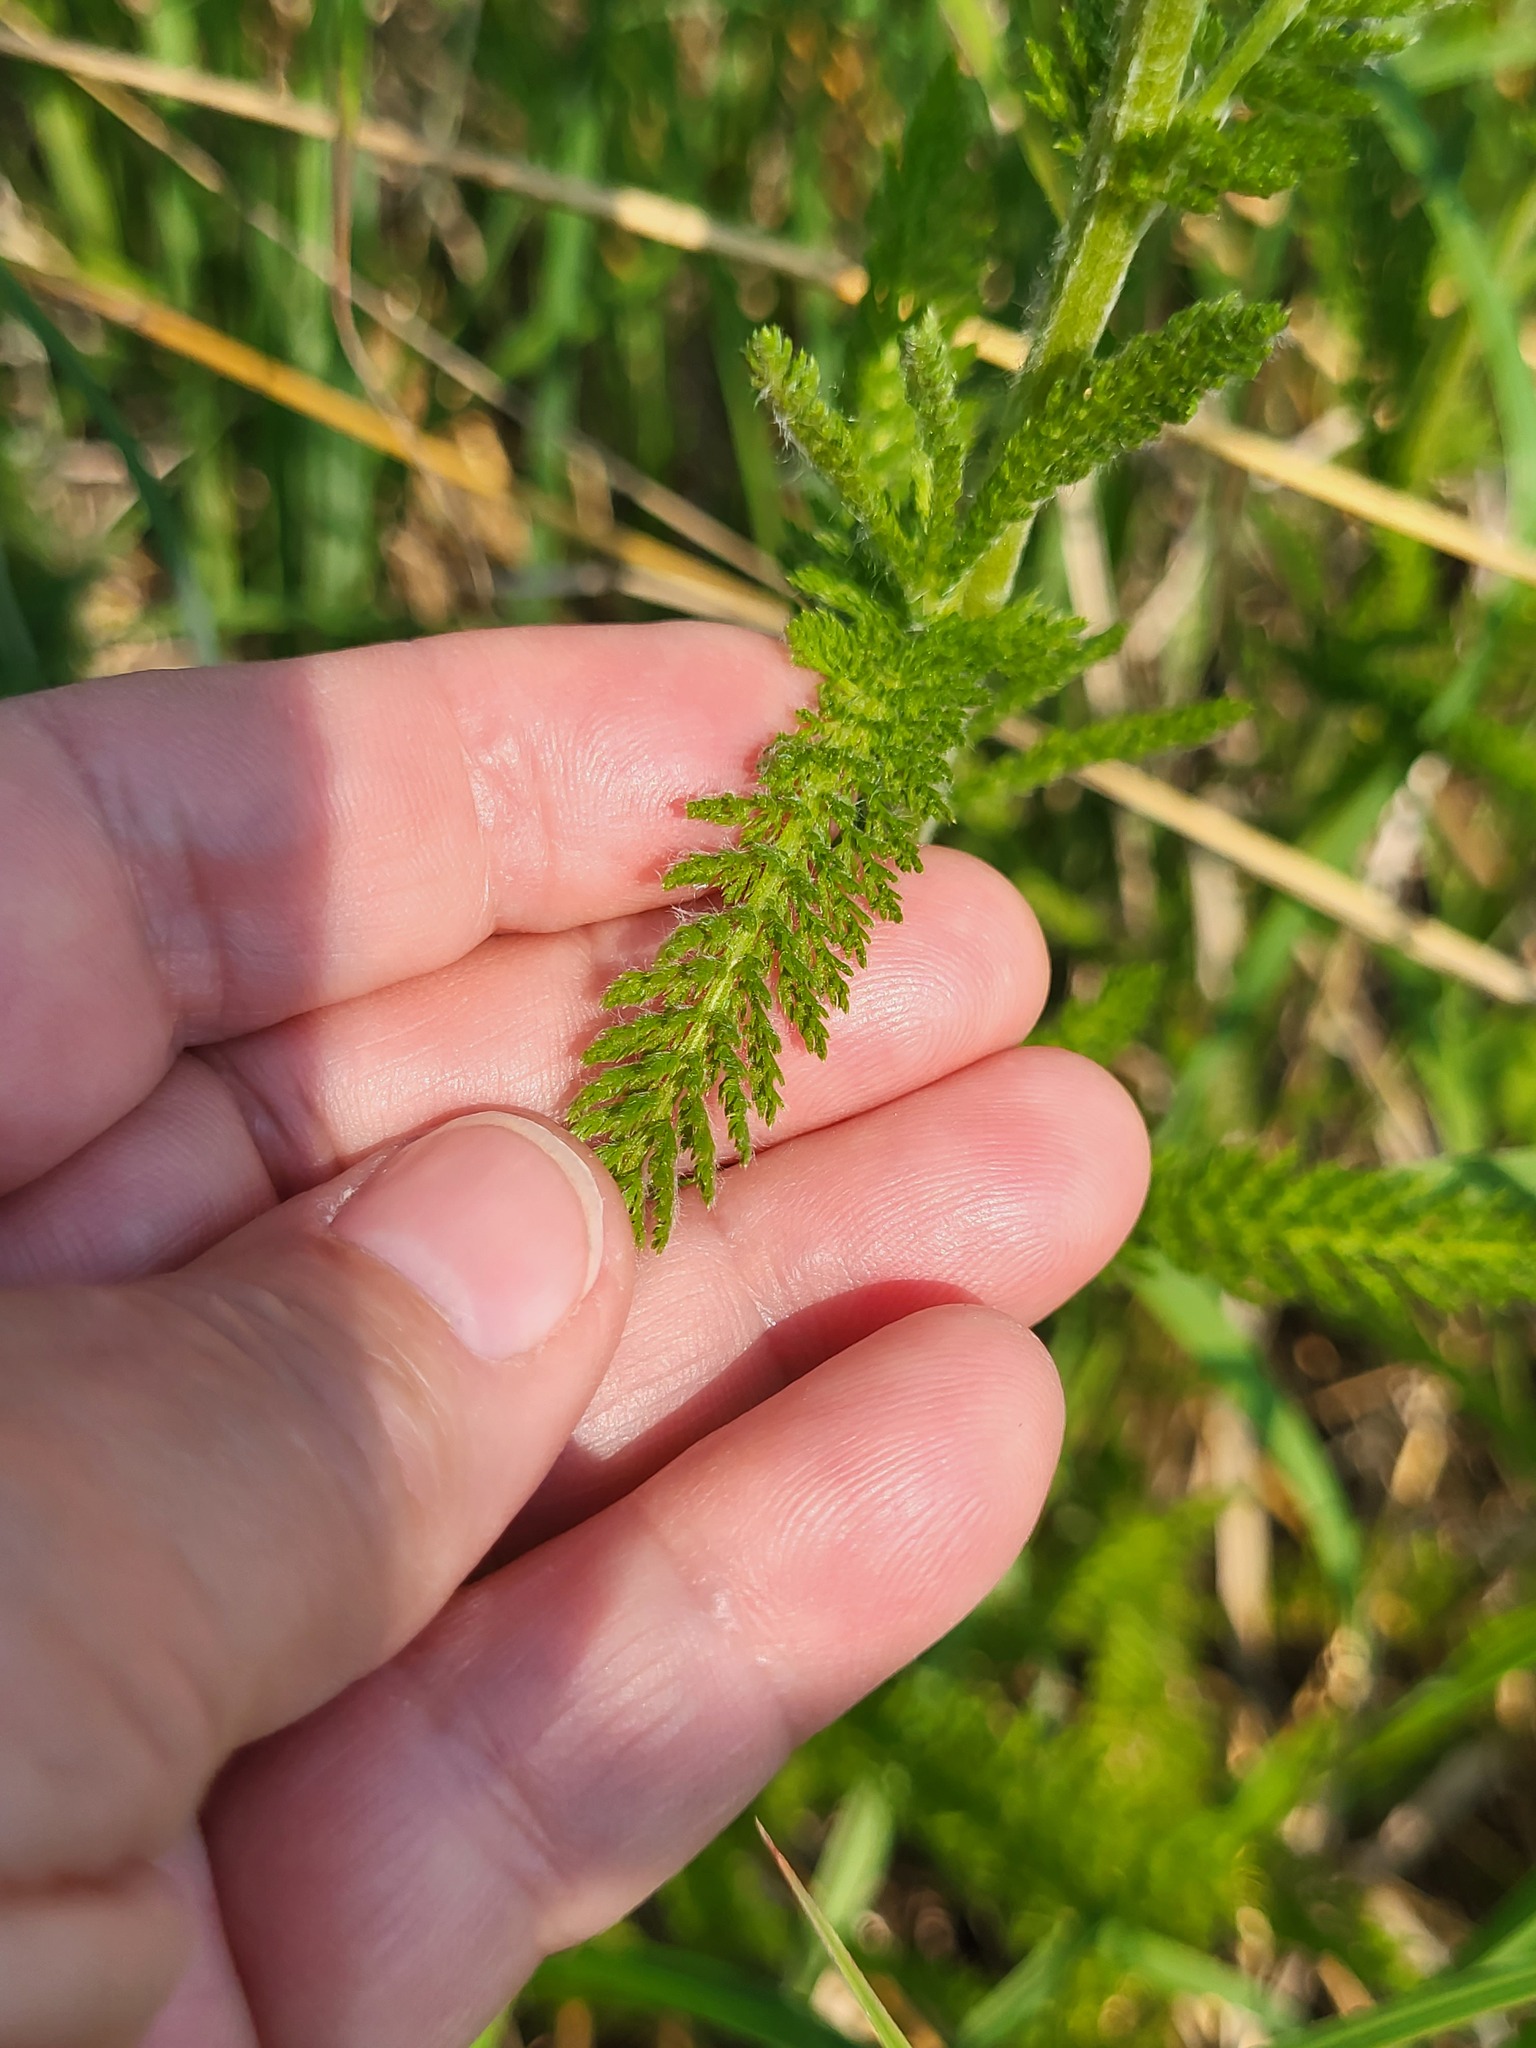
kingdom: Plantae
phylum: Tracheophyta
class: Magnoliopsida
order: Asterales
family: Asteraceae
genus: Achillea
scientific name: Achillea millefolium
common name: Yarrow
